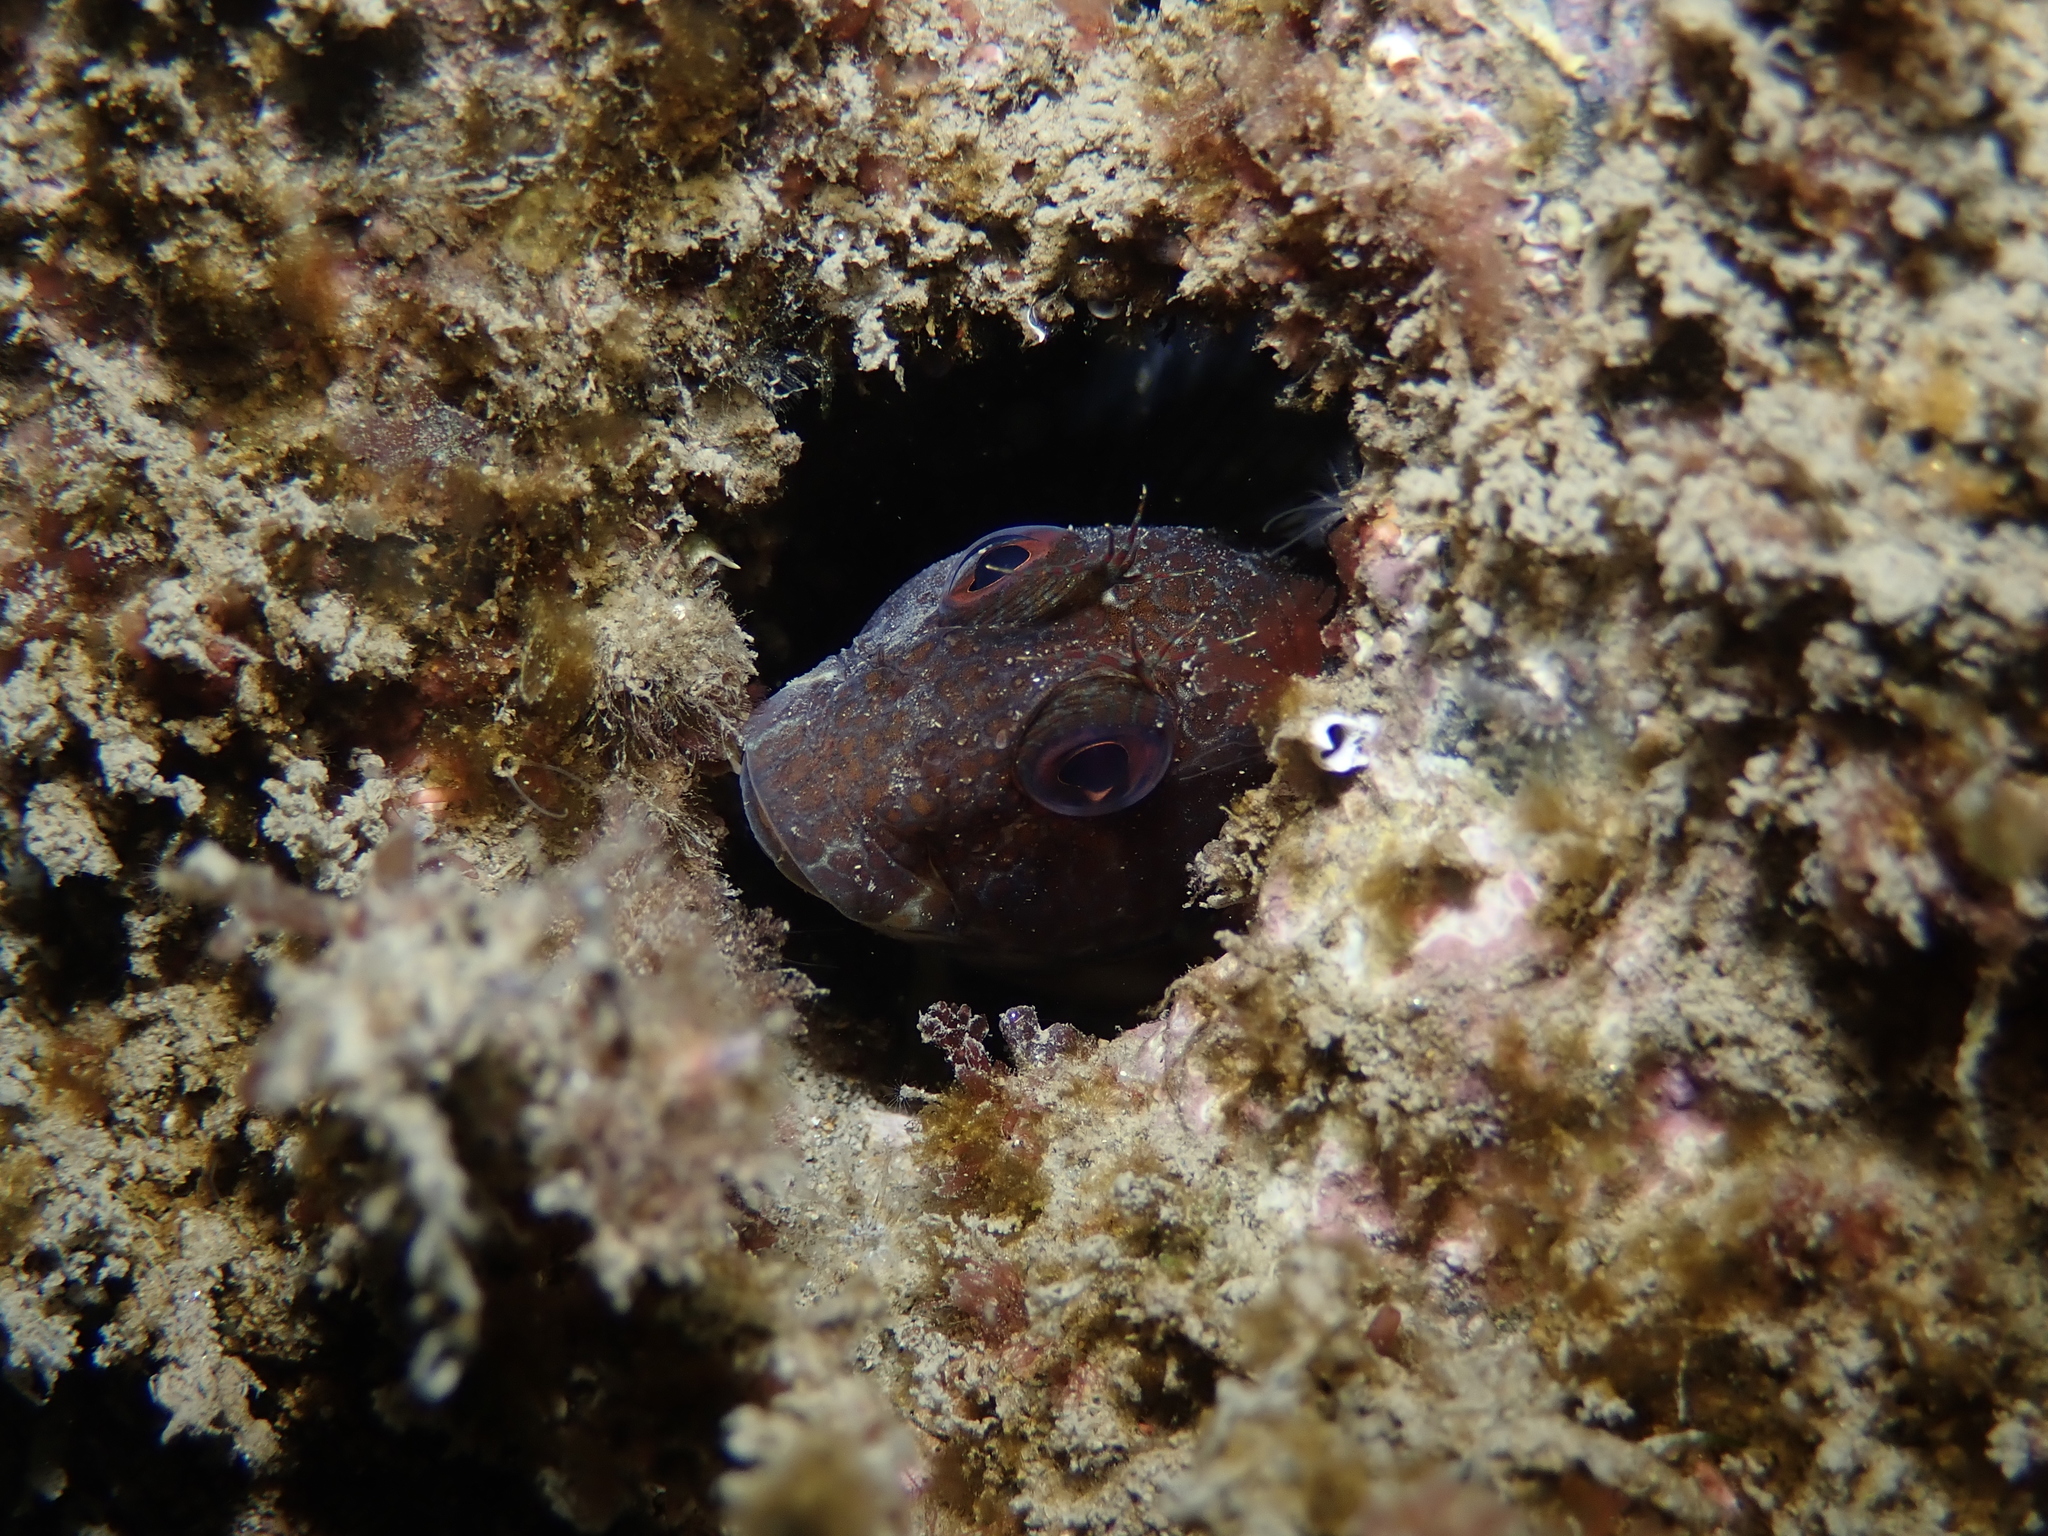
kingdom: Animalia
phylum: Chordata
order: Perciformes
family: Blenniidae
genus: Parablennius
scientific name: Parablennius pilicornis
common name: Ringneck blenny
